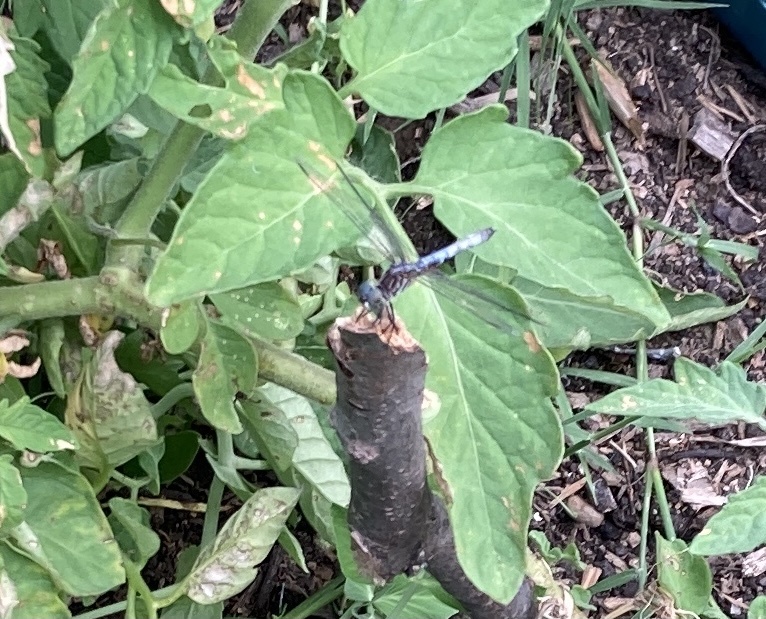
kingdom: Animalia
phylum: Arthropoda
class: Insecta
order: Odonata
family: Libellulidae
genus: Pachydiplax
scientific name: Pachydiplax longipennis
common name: Blue dasher
